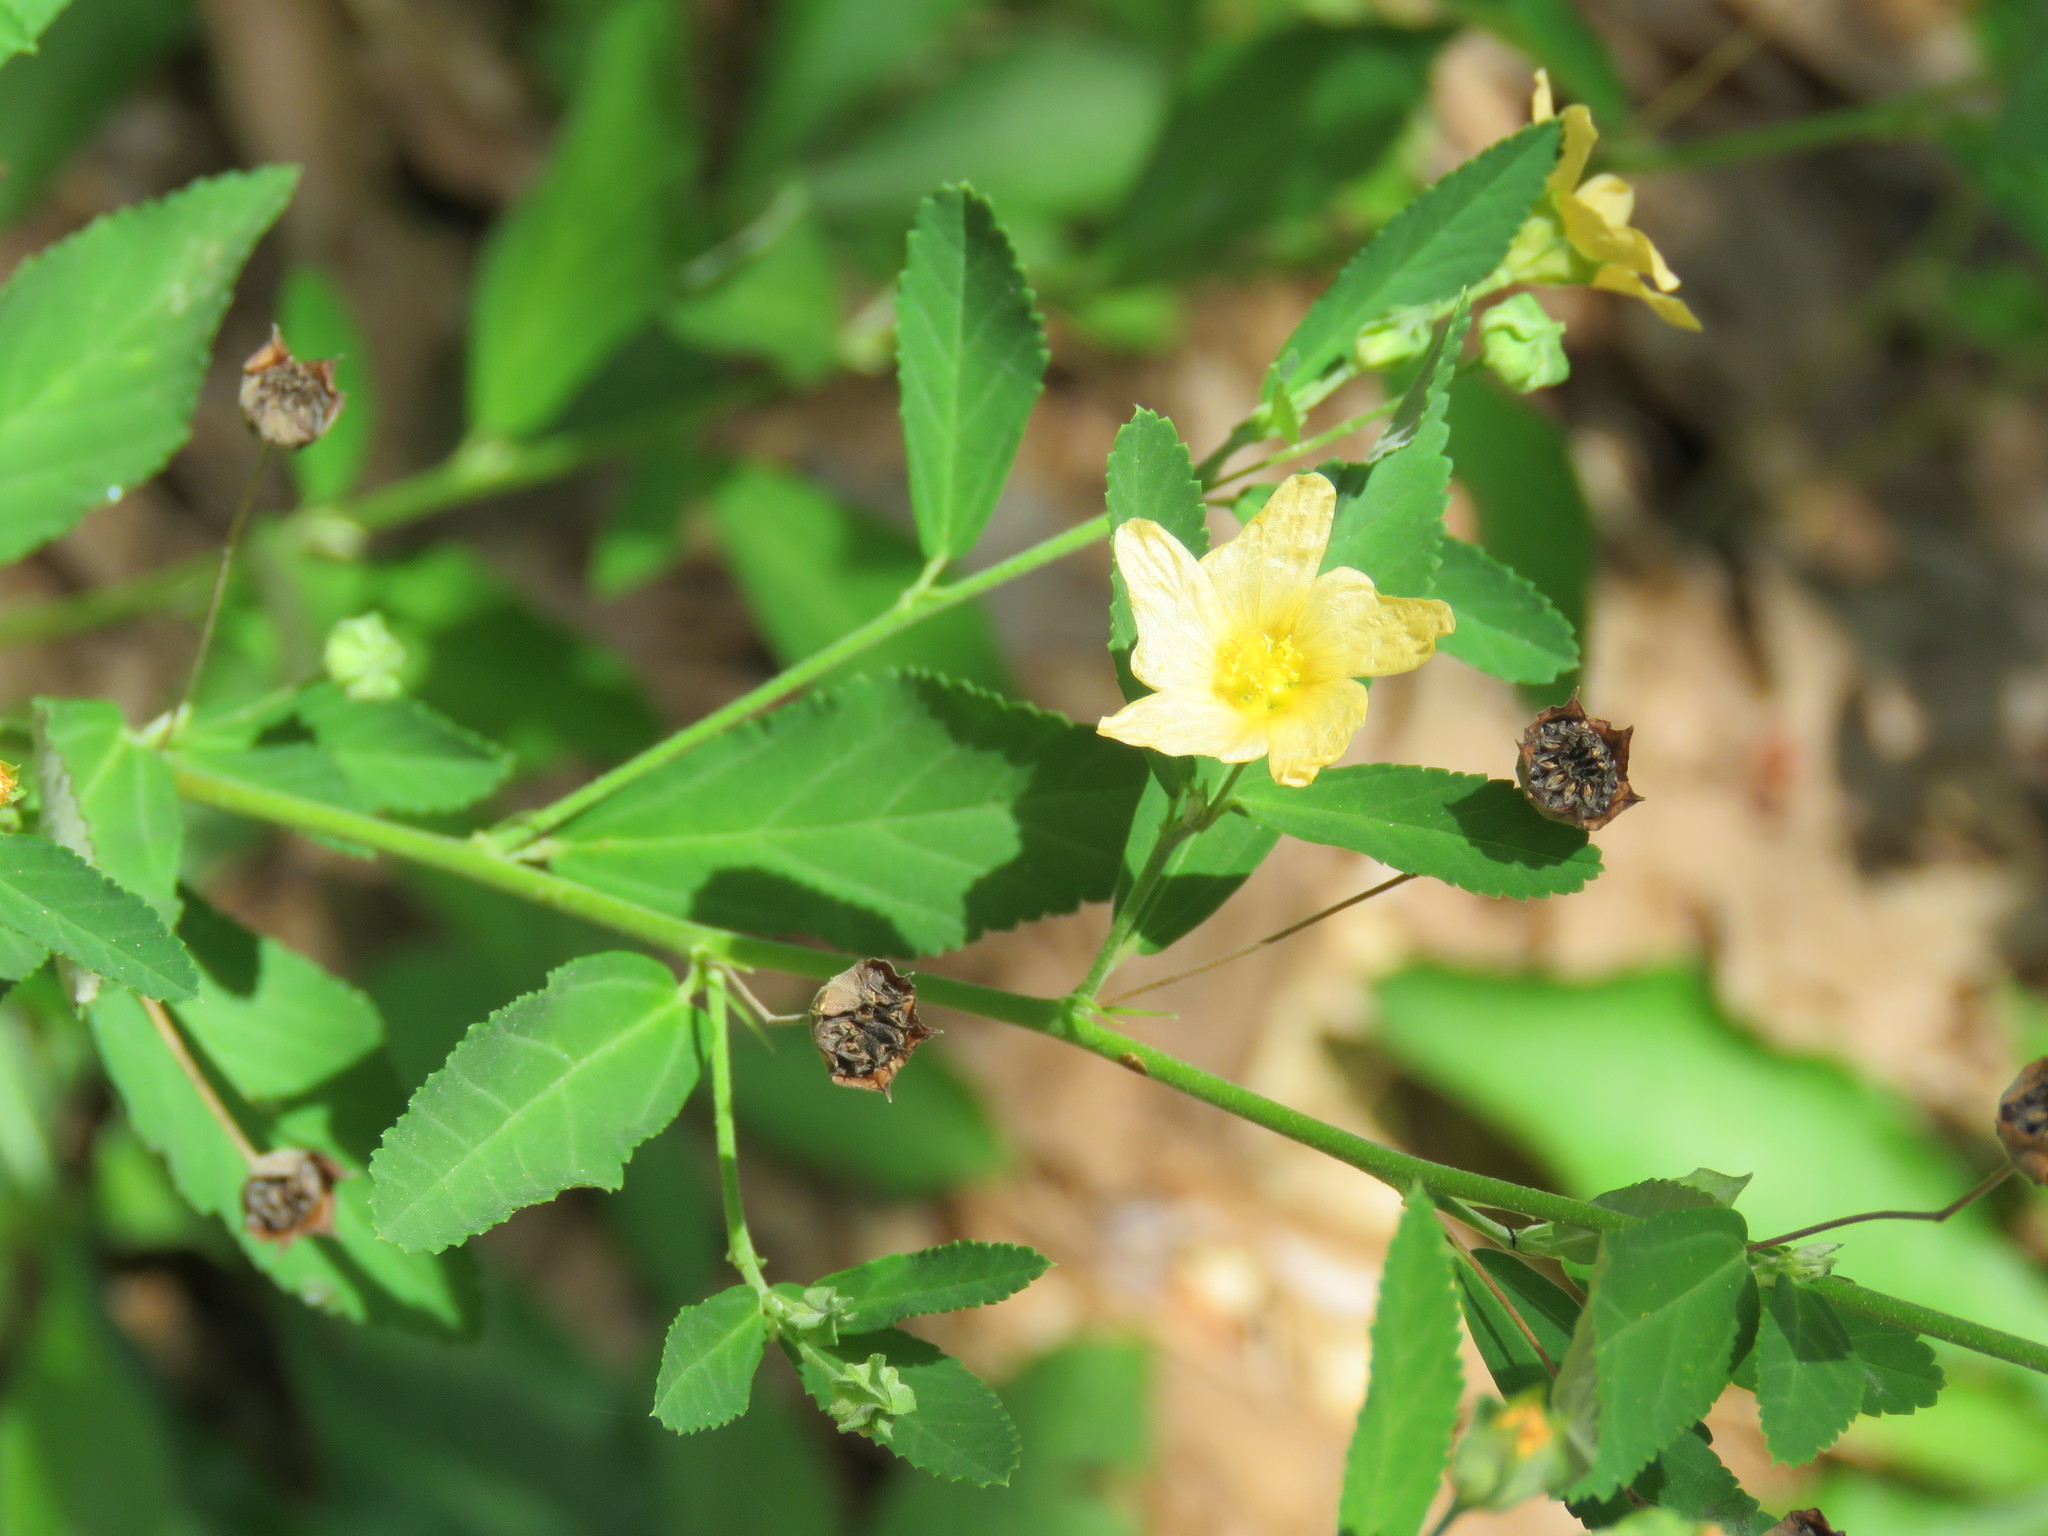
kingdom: Plantae
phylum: Tracheophyta
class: Magnoliopsida
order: Malvales
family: Malvaceae
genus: Sida
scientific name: Sida rhombifolia
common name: Queensland-hemp
